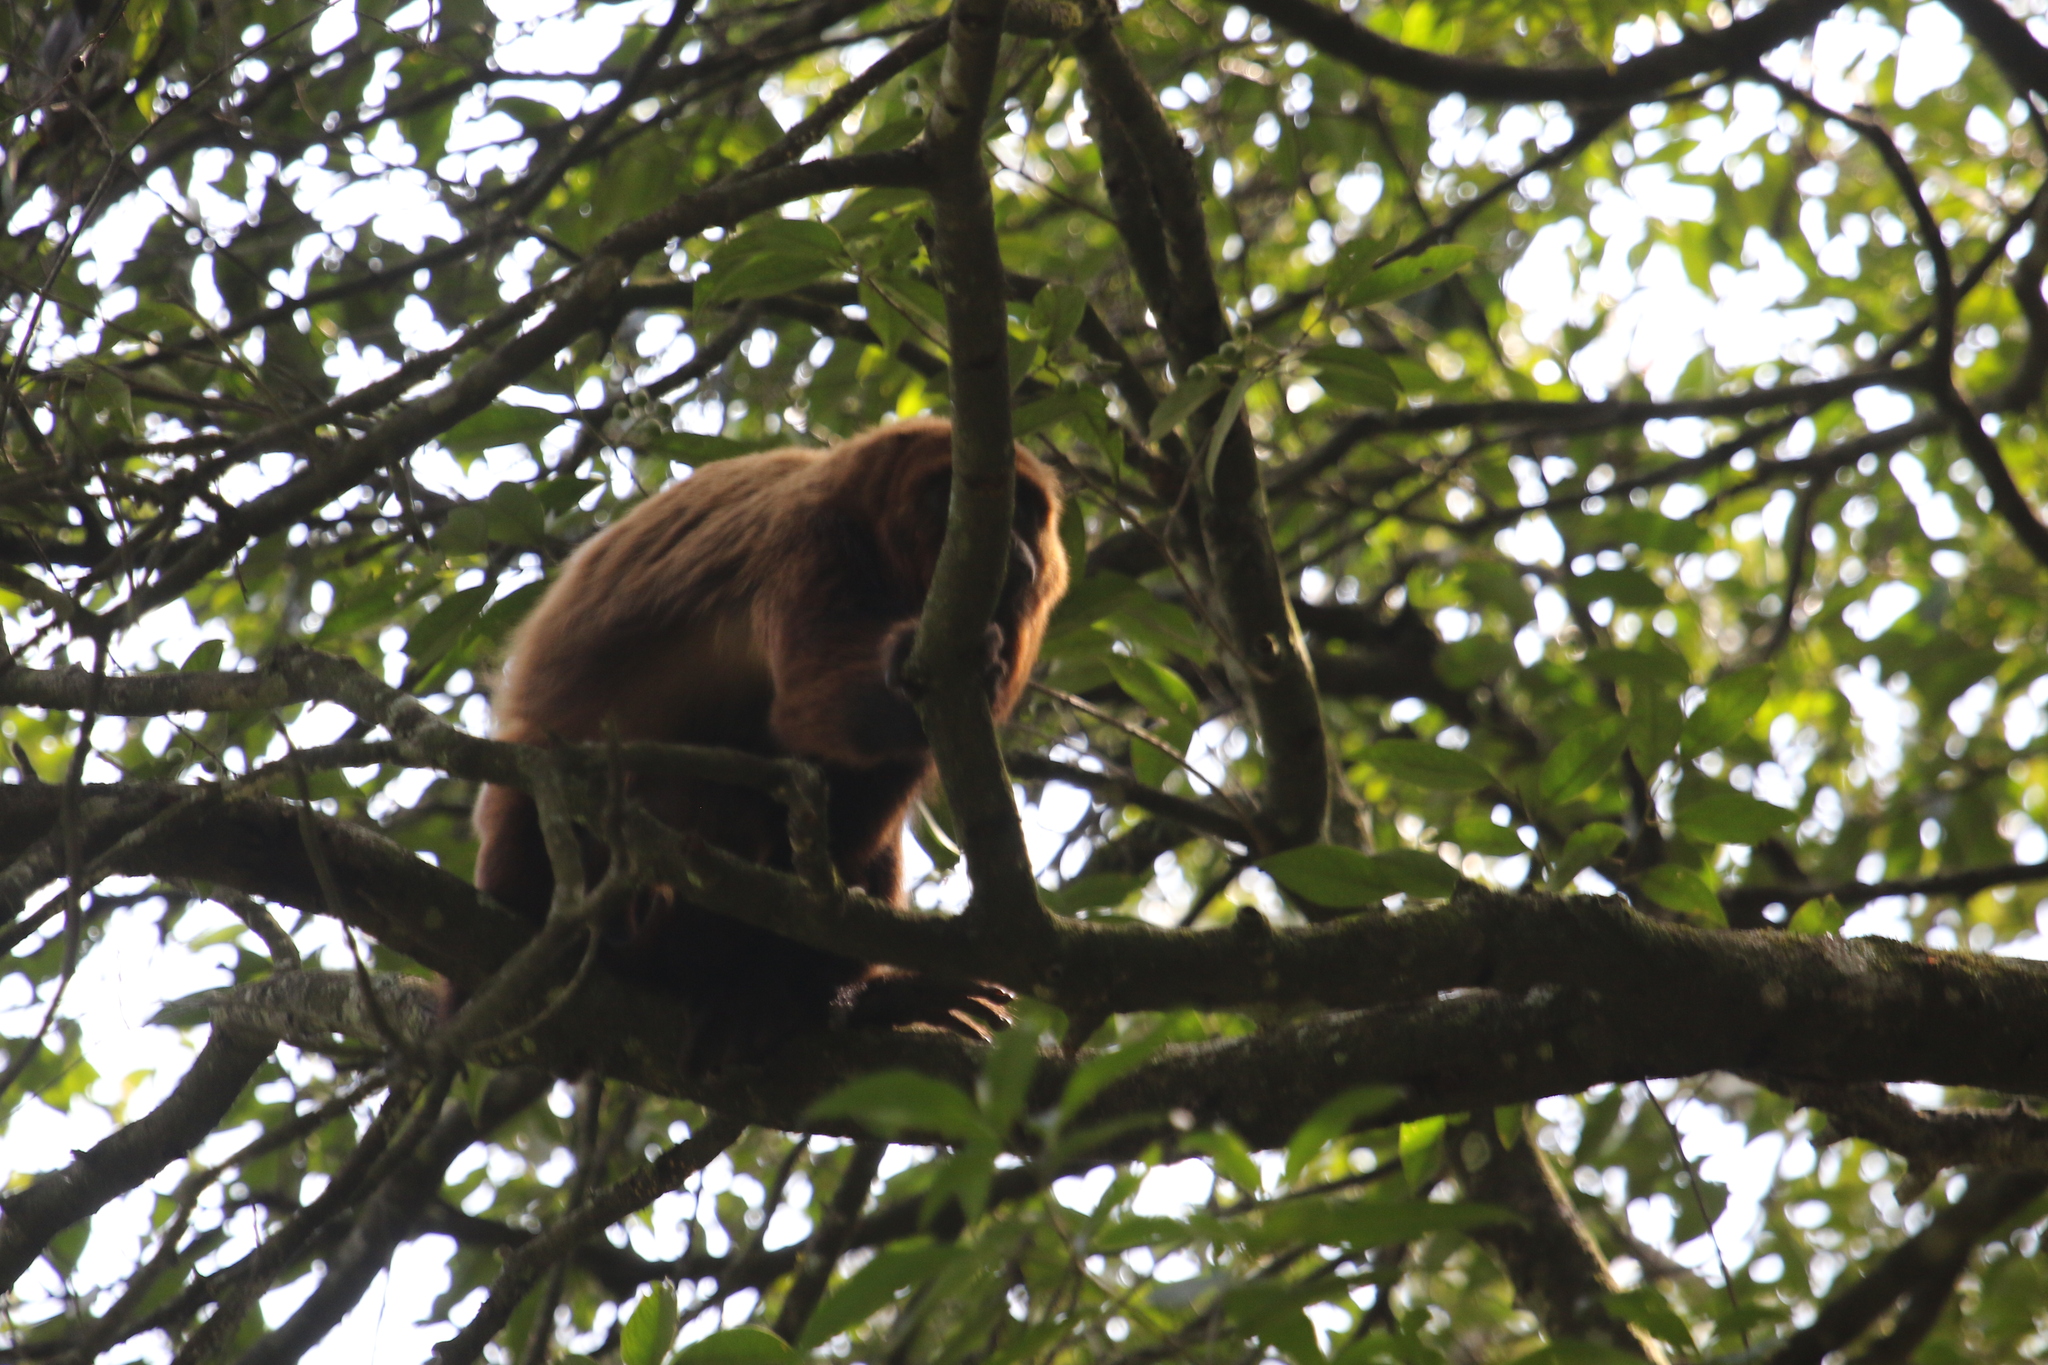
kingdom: Animalia
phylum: Chordata
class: Mammalia
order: Primates
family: Atelidae
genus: Alouatta
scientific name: Alouatta guariba
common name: Brown howler monkey
